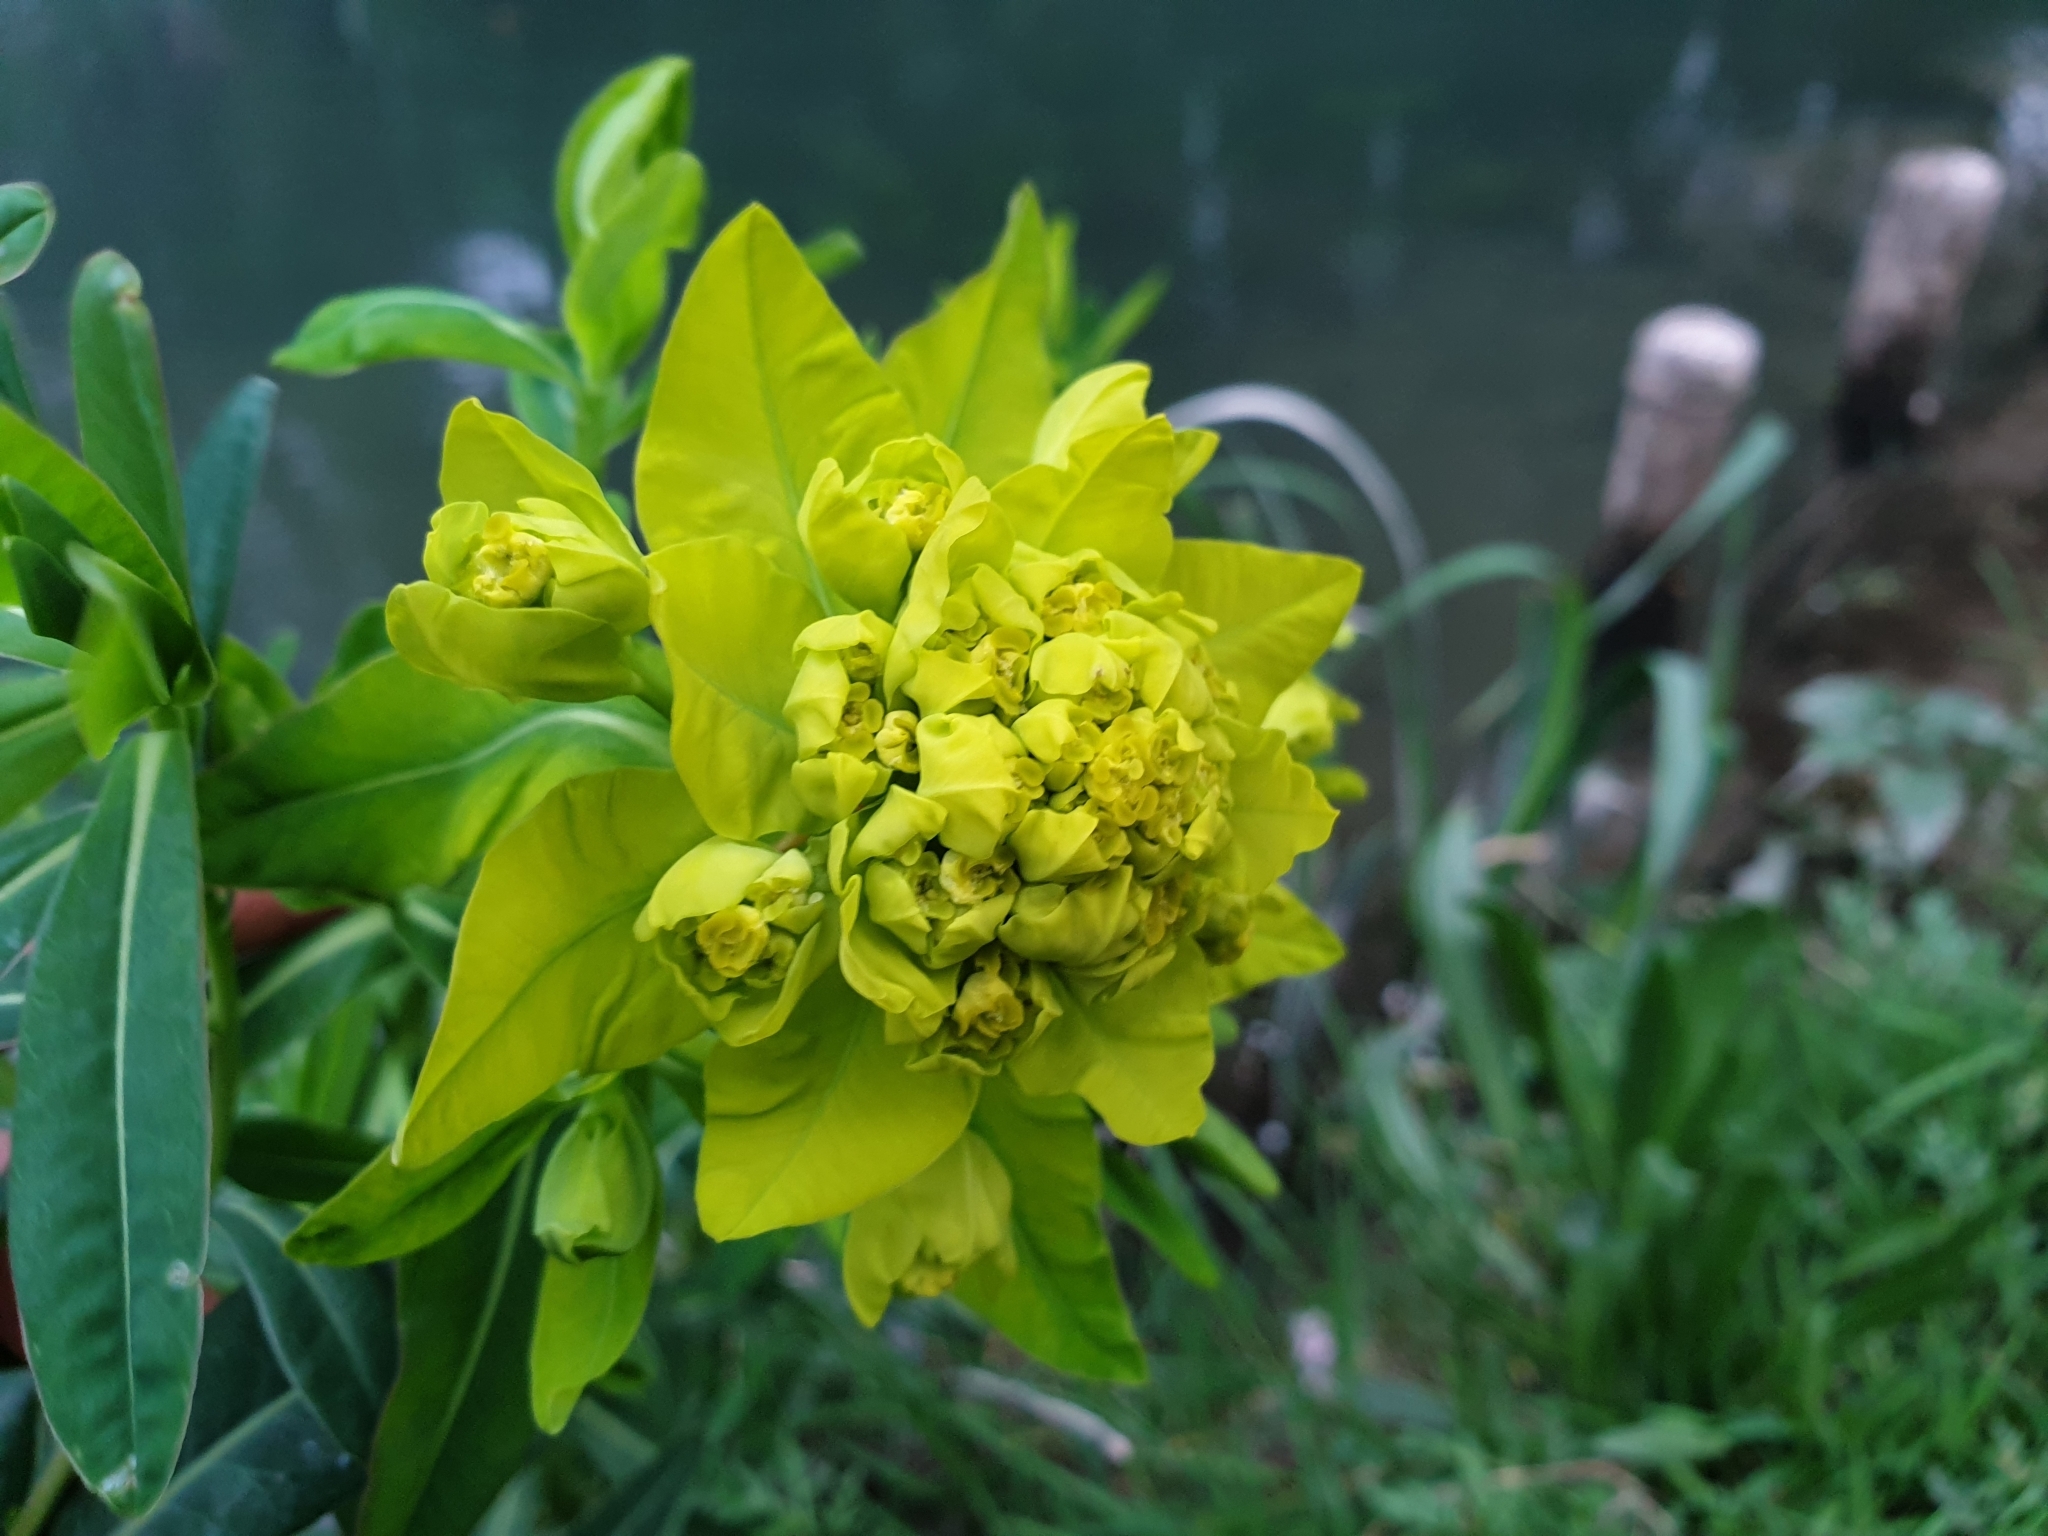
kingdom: Plantae
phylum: Tracheophyta
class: Magnoliopsida
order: Malpighiales
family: Euphorbiaceae
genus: Euphorbia
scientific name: Euphorbia palustris
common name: Marsh spurge
